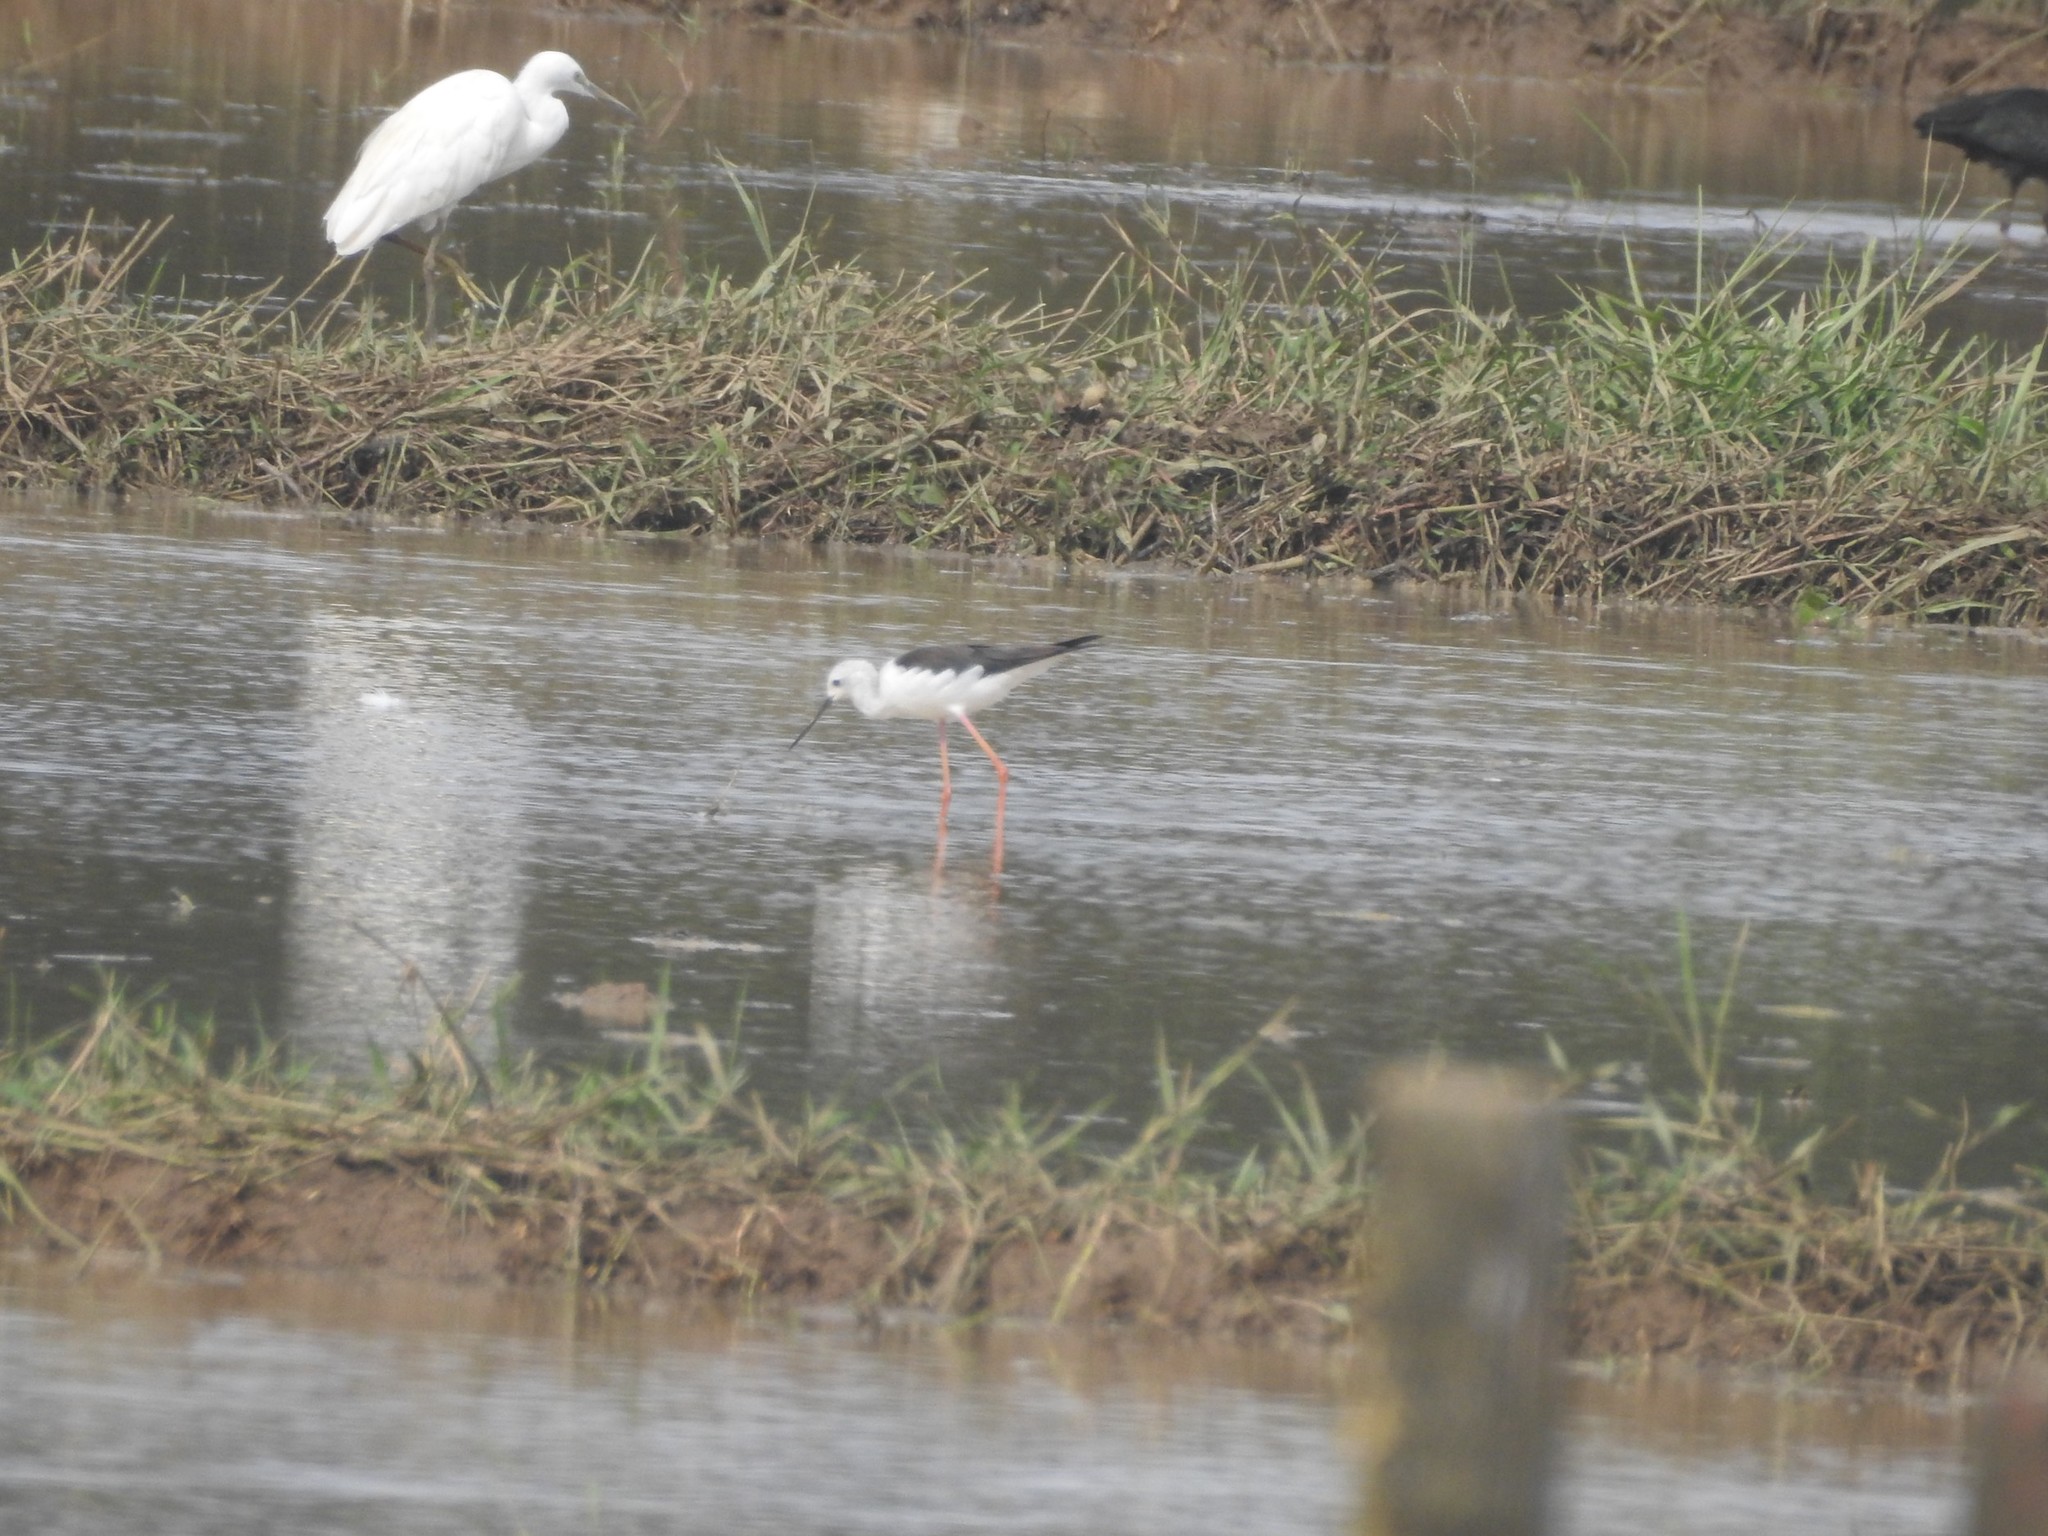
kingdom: Animalia
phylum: Chordata
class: Aves
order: Charadriiformes
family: Recurvirostridae
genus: Himantopus
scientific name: Himantopus himantopus
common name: Black-winged stilt
